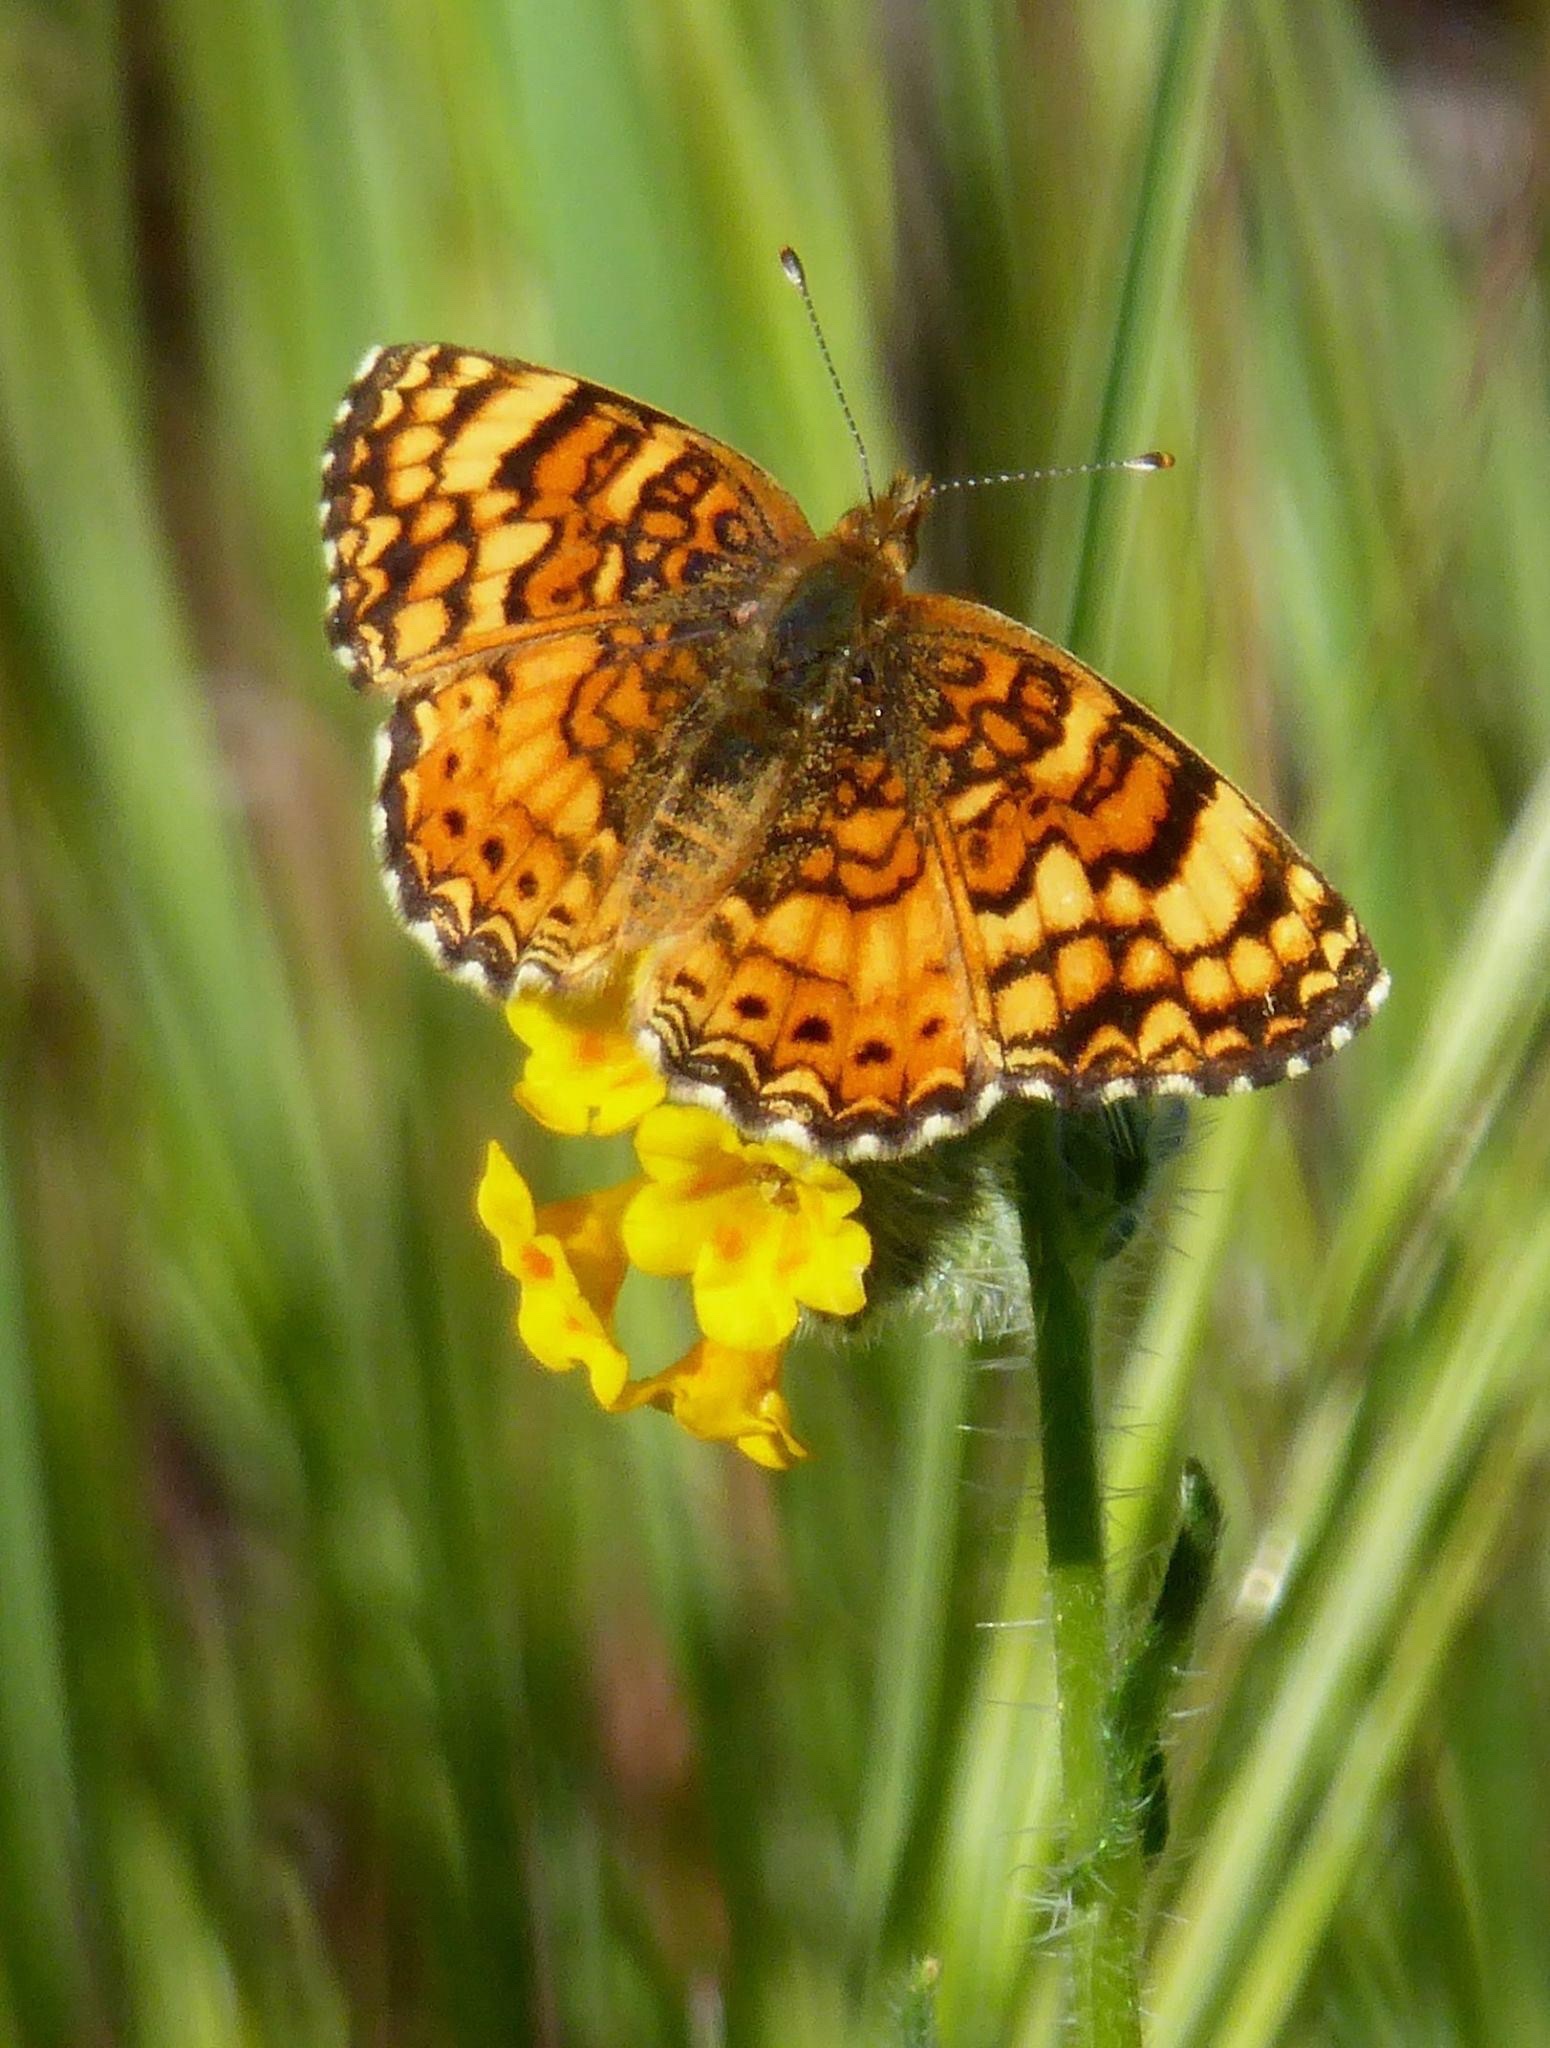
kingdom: Animalia
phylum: Arthropoda
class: Insecta
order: Lepidoptera
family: Nymphalidae
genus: Eresia
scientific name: Eresia aveyrona
